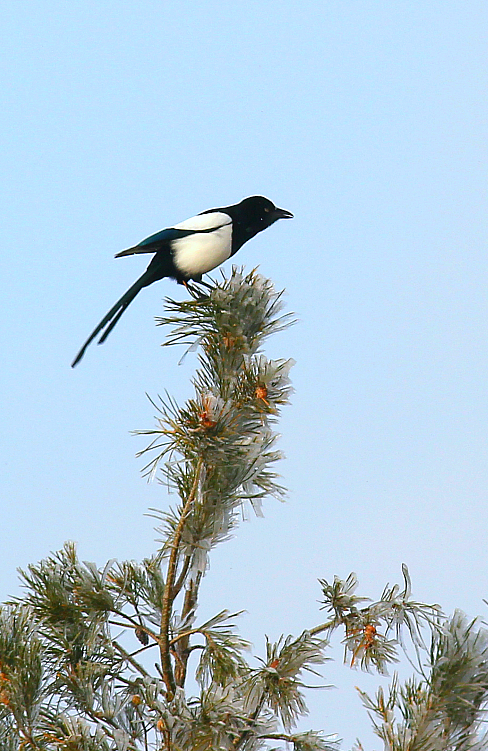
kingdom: Animalia
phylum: Chordata
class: Aves
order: Passeriformes
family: Corvidae
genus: Pica
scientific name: Pica pica
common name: Eurasian magpie
